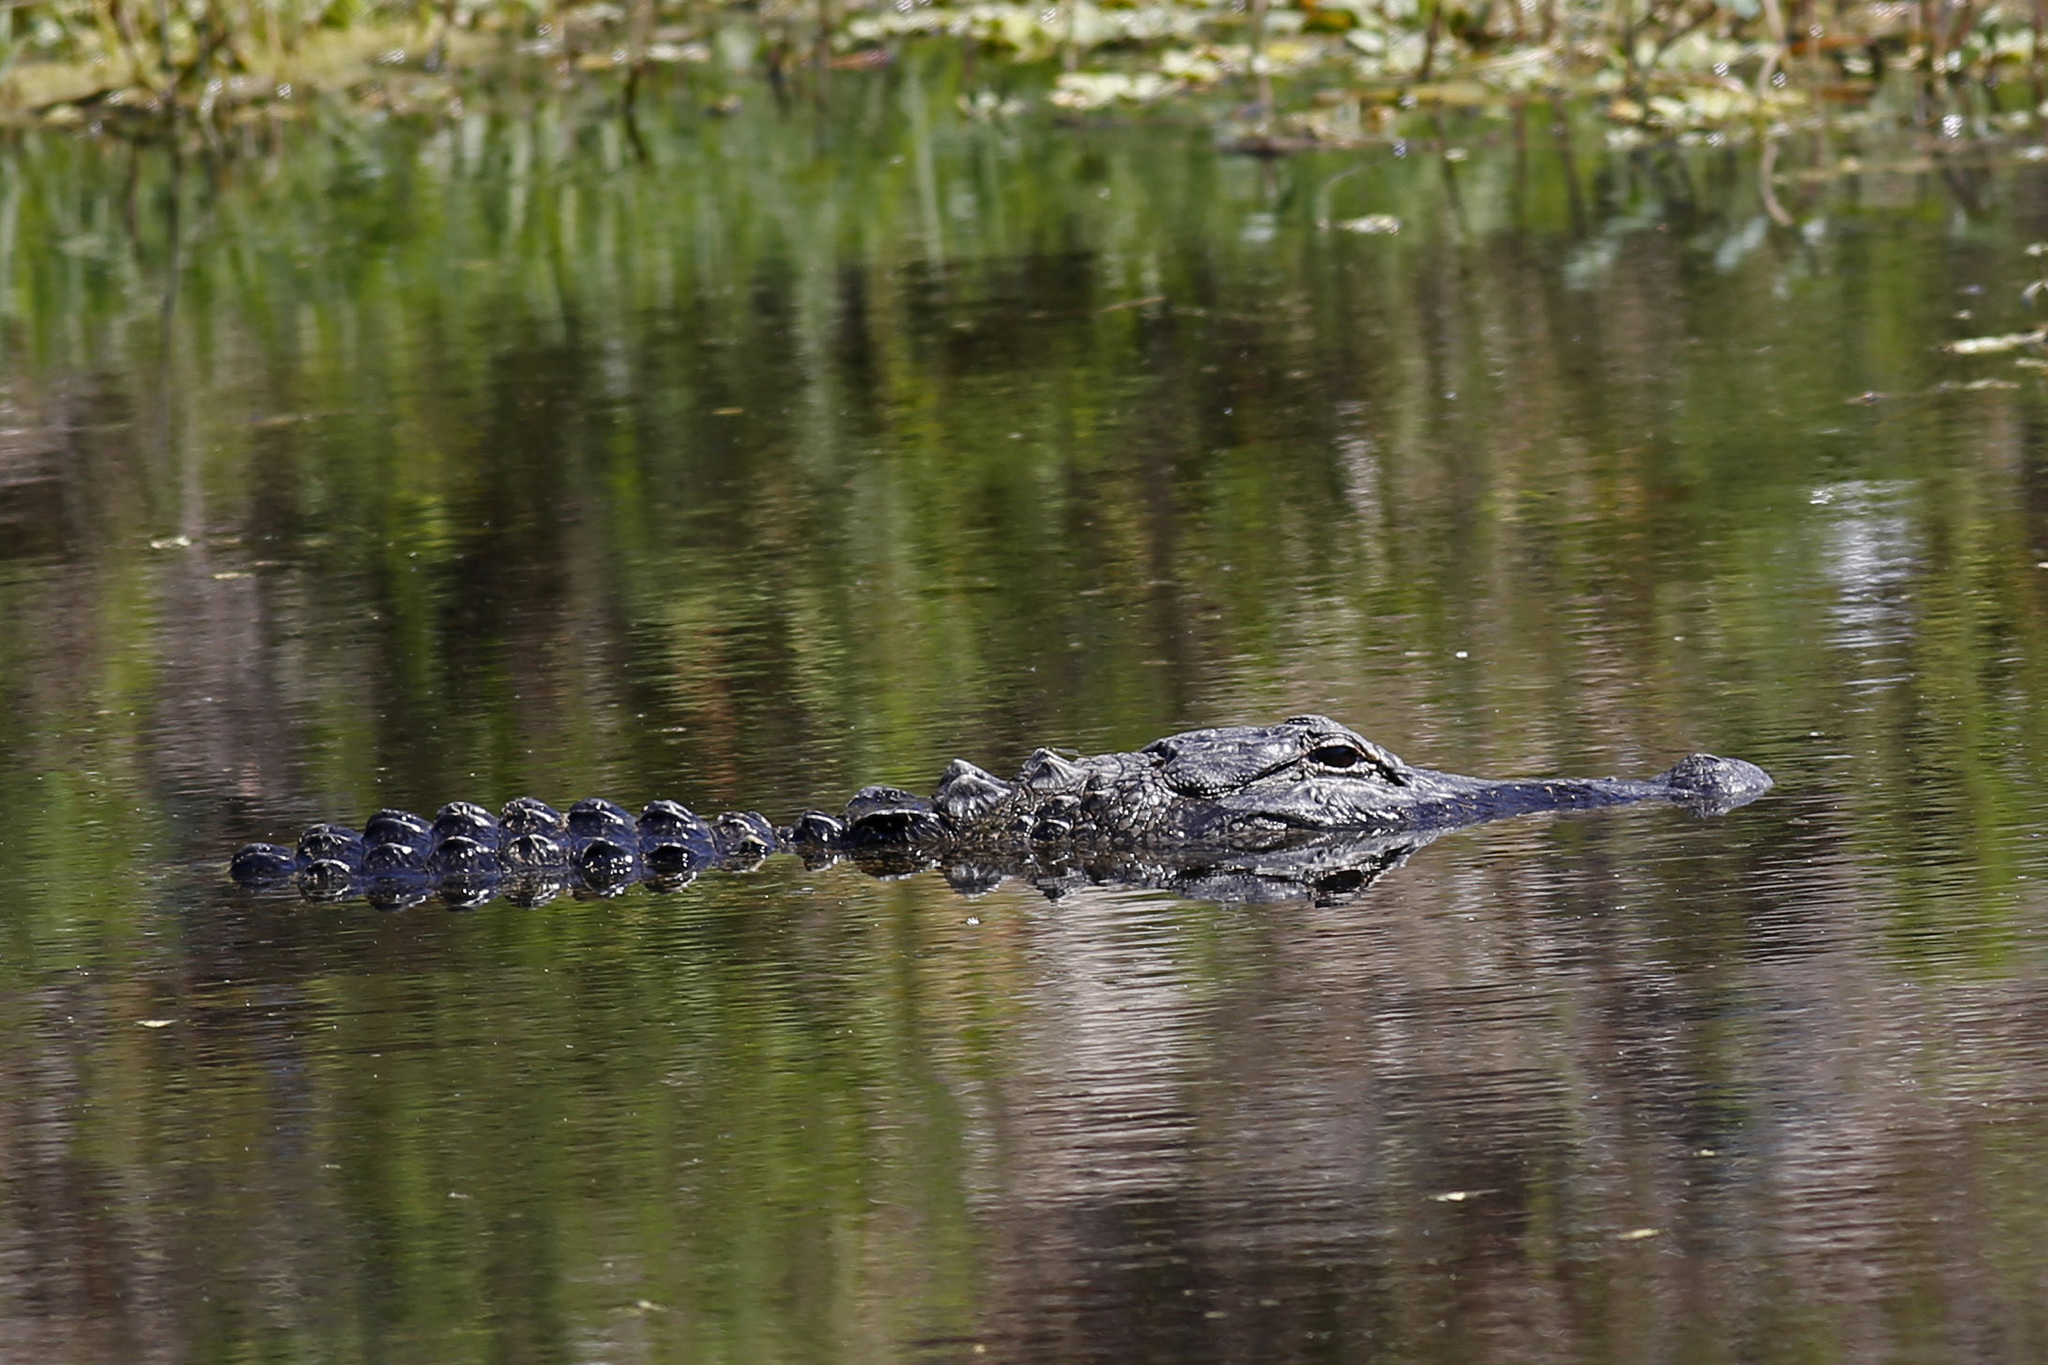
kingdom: Animalia
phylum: Chordata
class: Crocodylia
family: Alligatoridae
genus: Alligator
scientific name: Alligator mississippiensis
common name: American alligator
